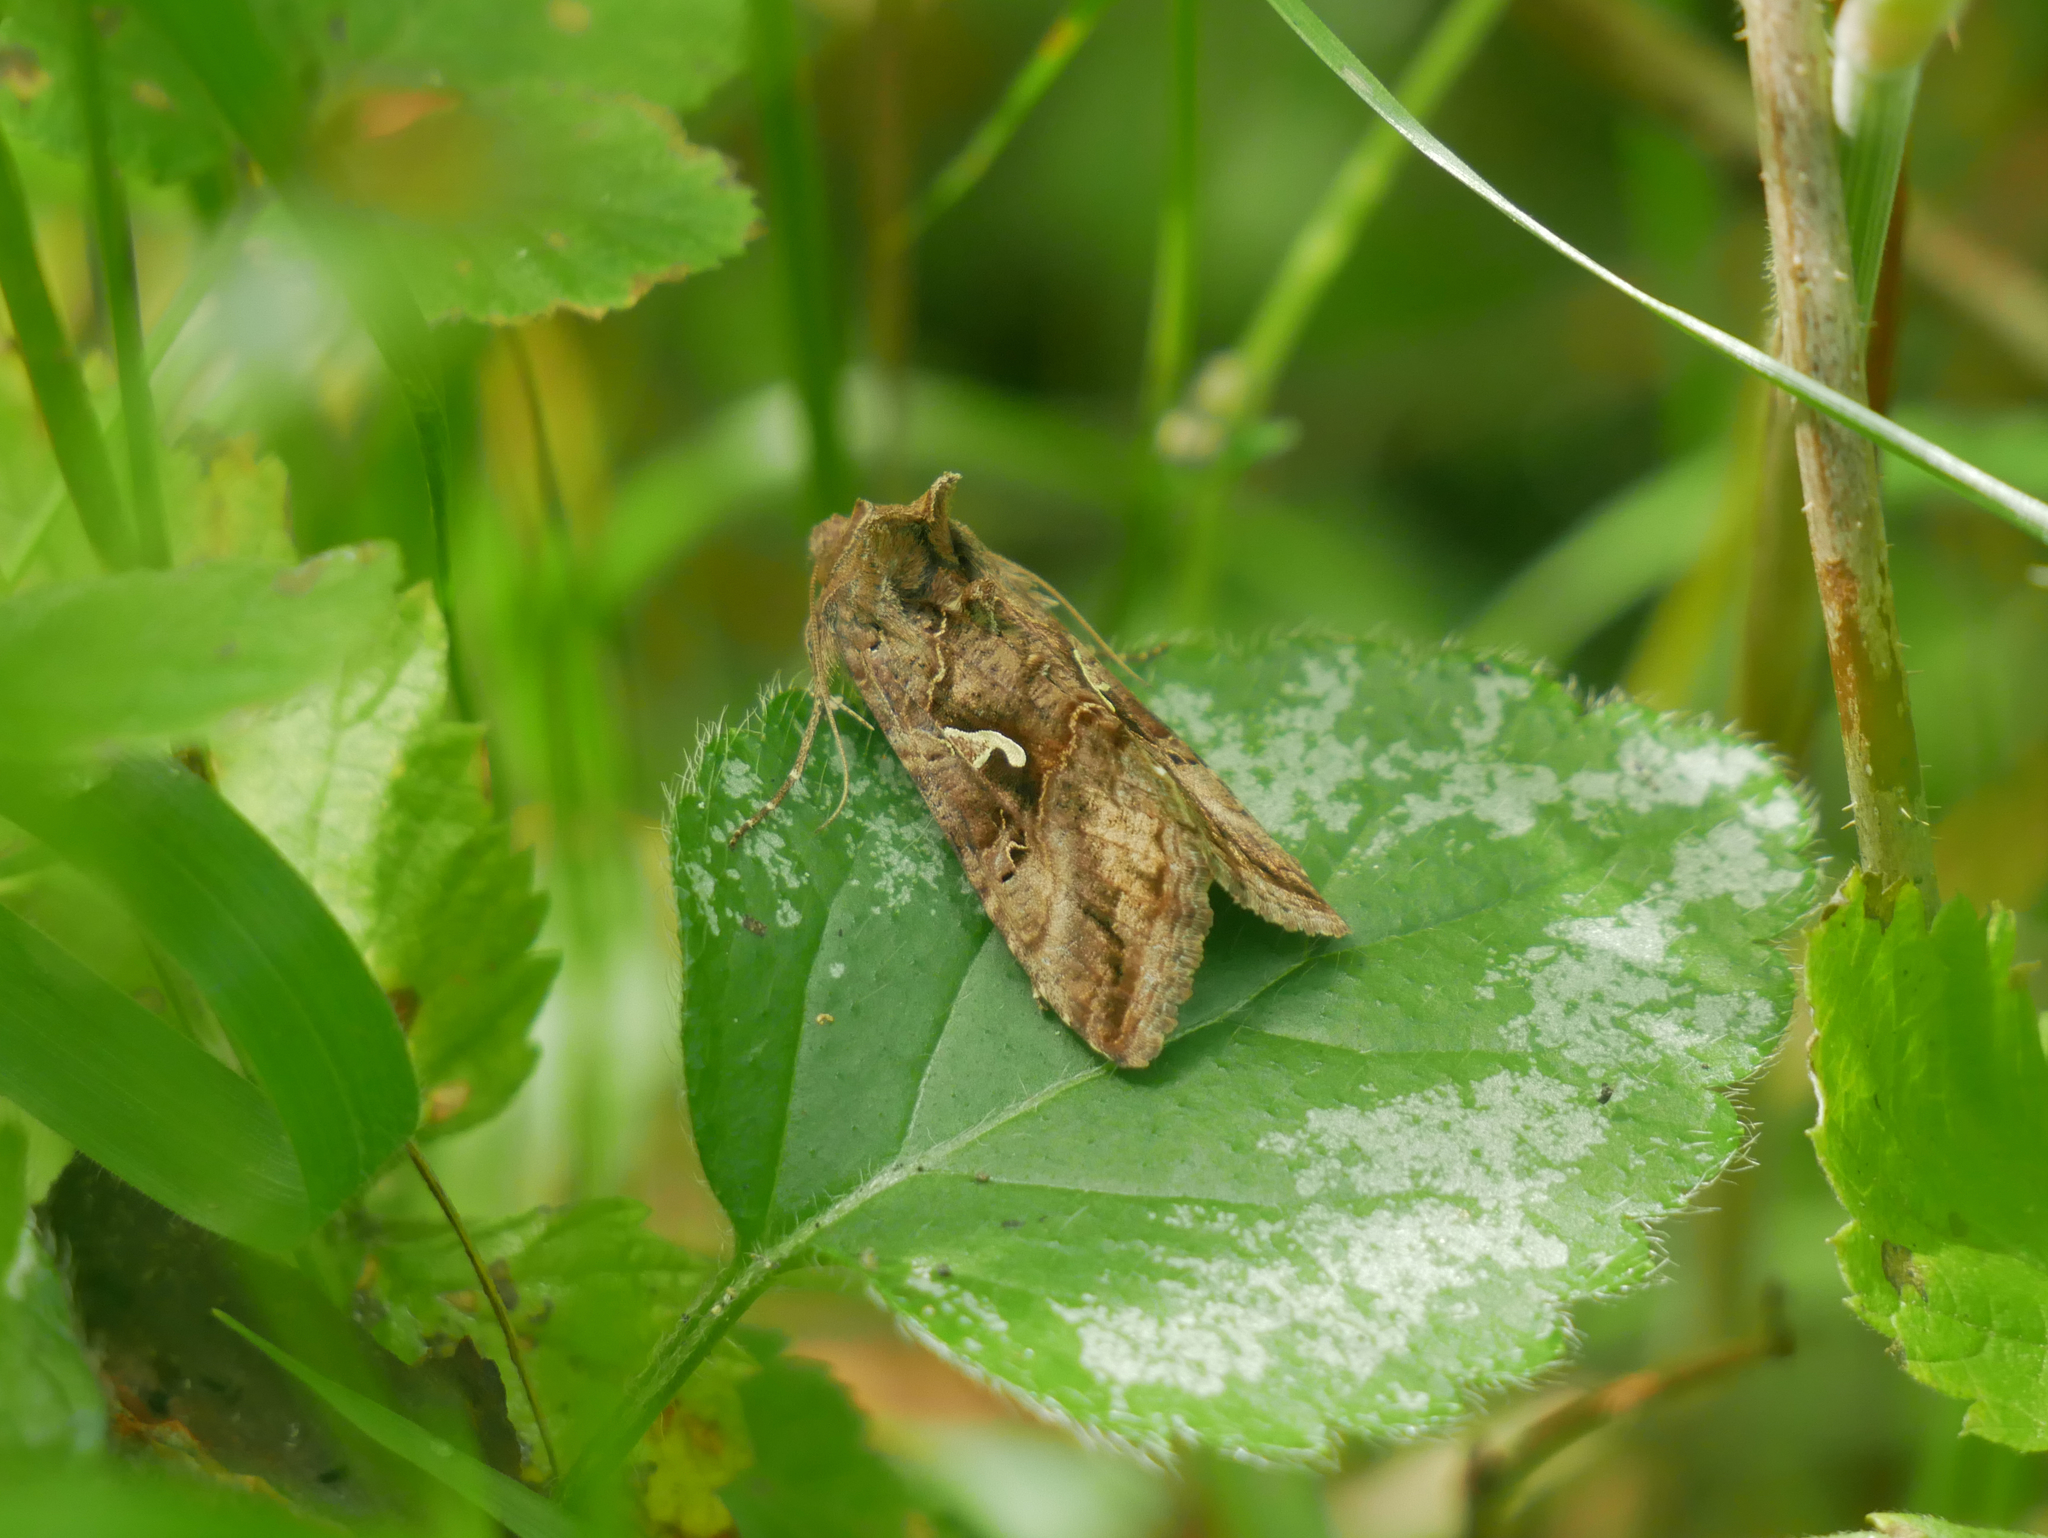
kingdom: Animalia
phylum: Arthropoda
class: Insecta
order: Lepidoptera
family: Noctuidae
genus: Autographa
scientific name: Autographa gamma
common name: Silver y
